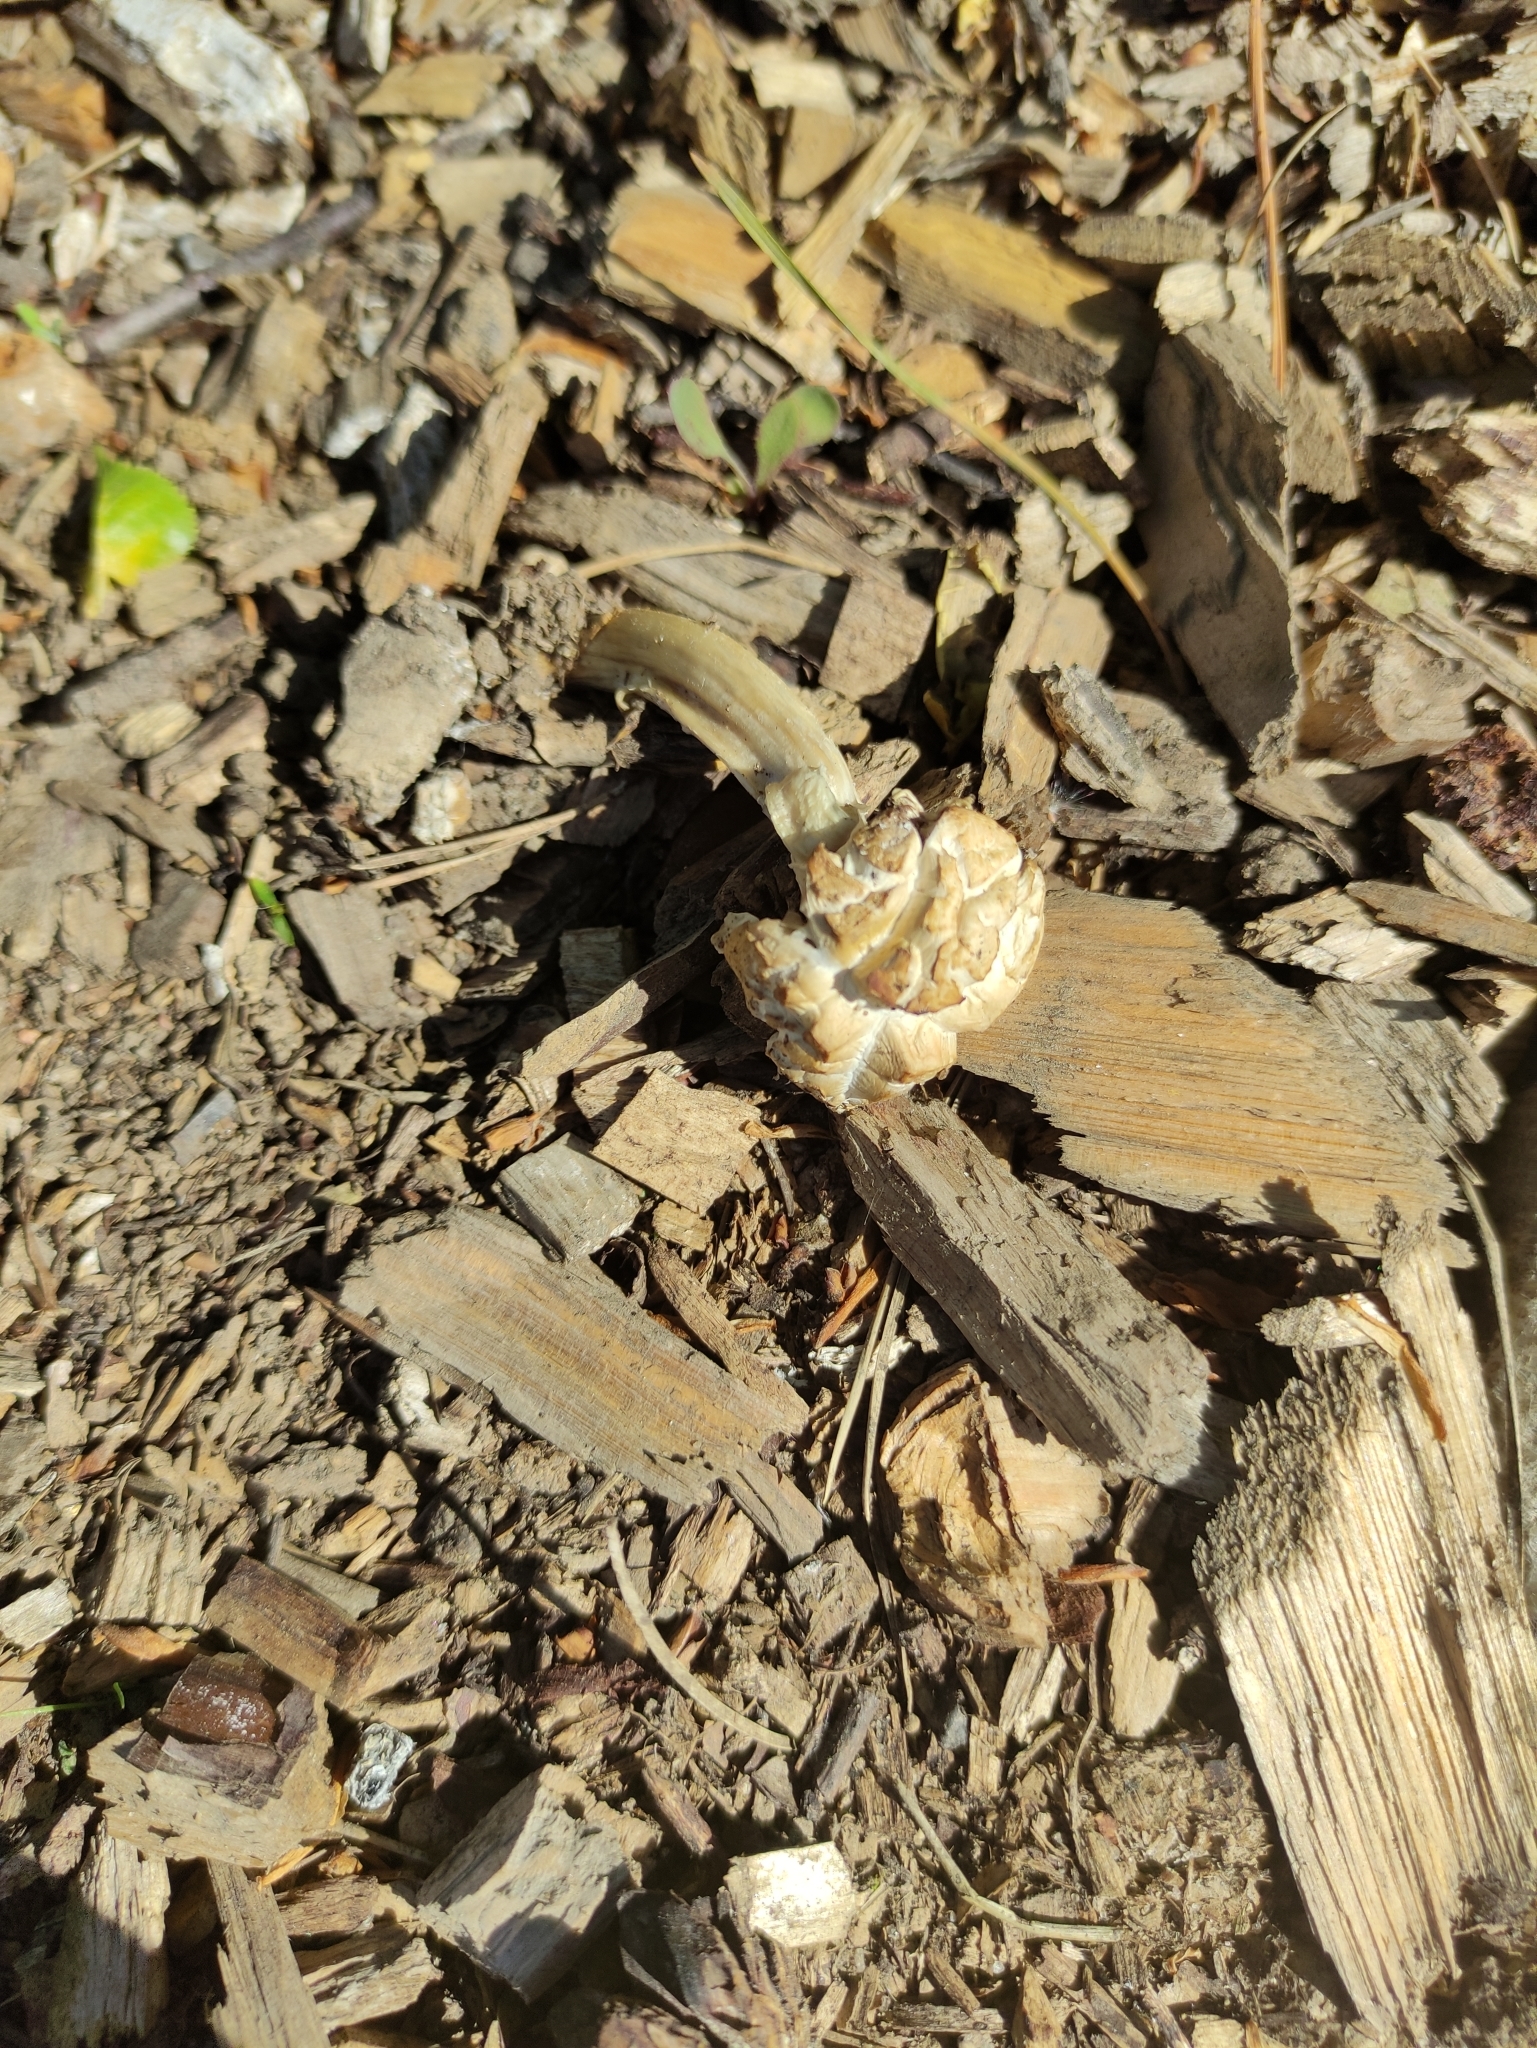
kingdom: Fungi
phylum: Basidiomycota
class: Agaricomycetes
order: Agaricales
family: Strophariaceae
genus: Agrocybe
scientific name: Agrocybe praecox
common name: Spring fieldcap
